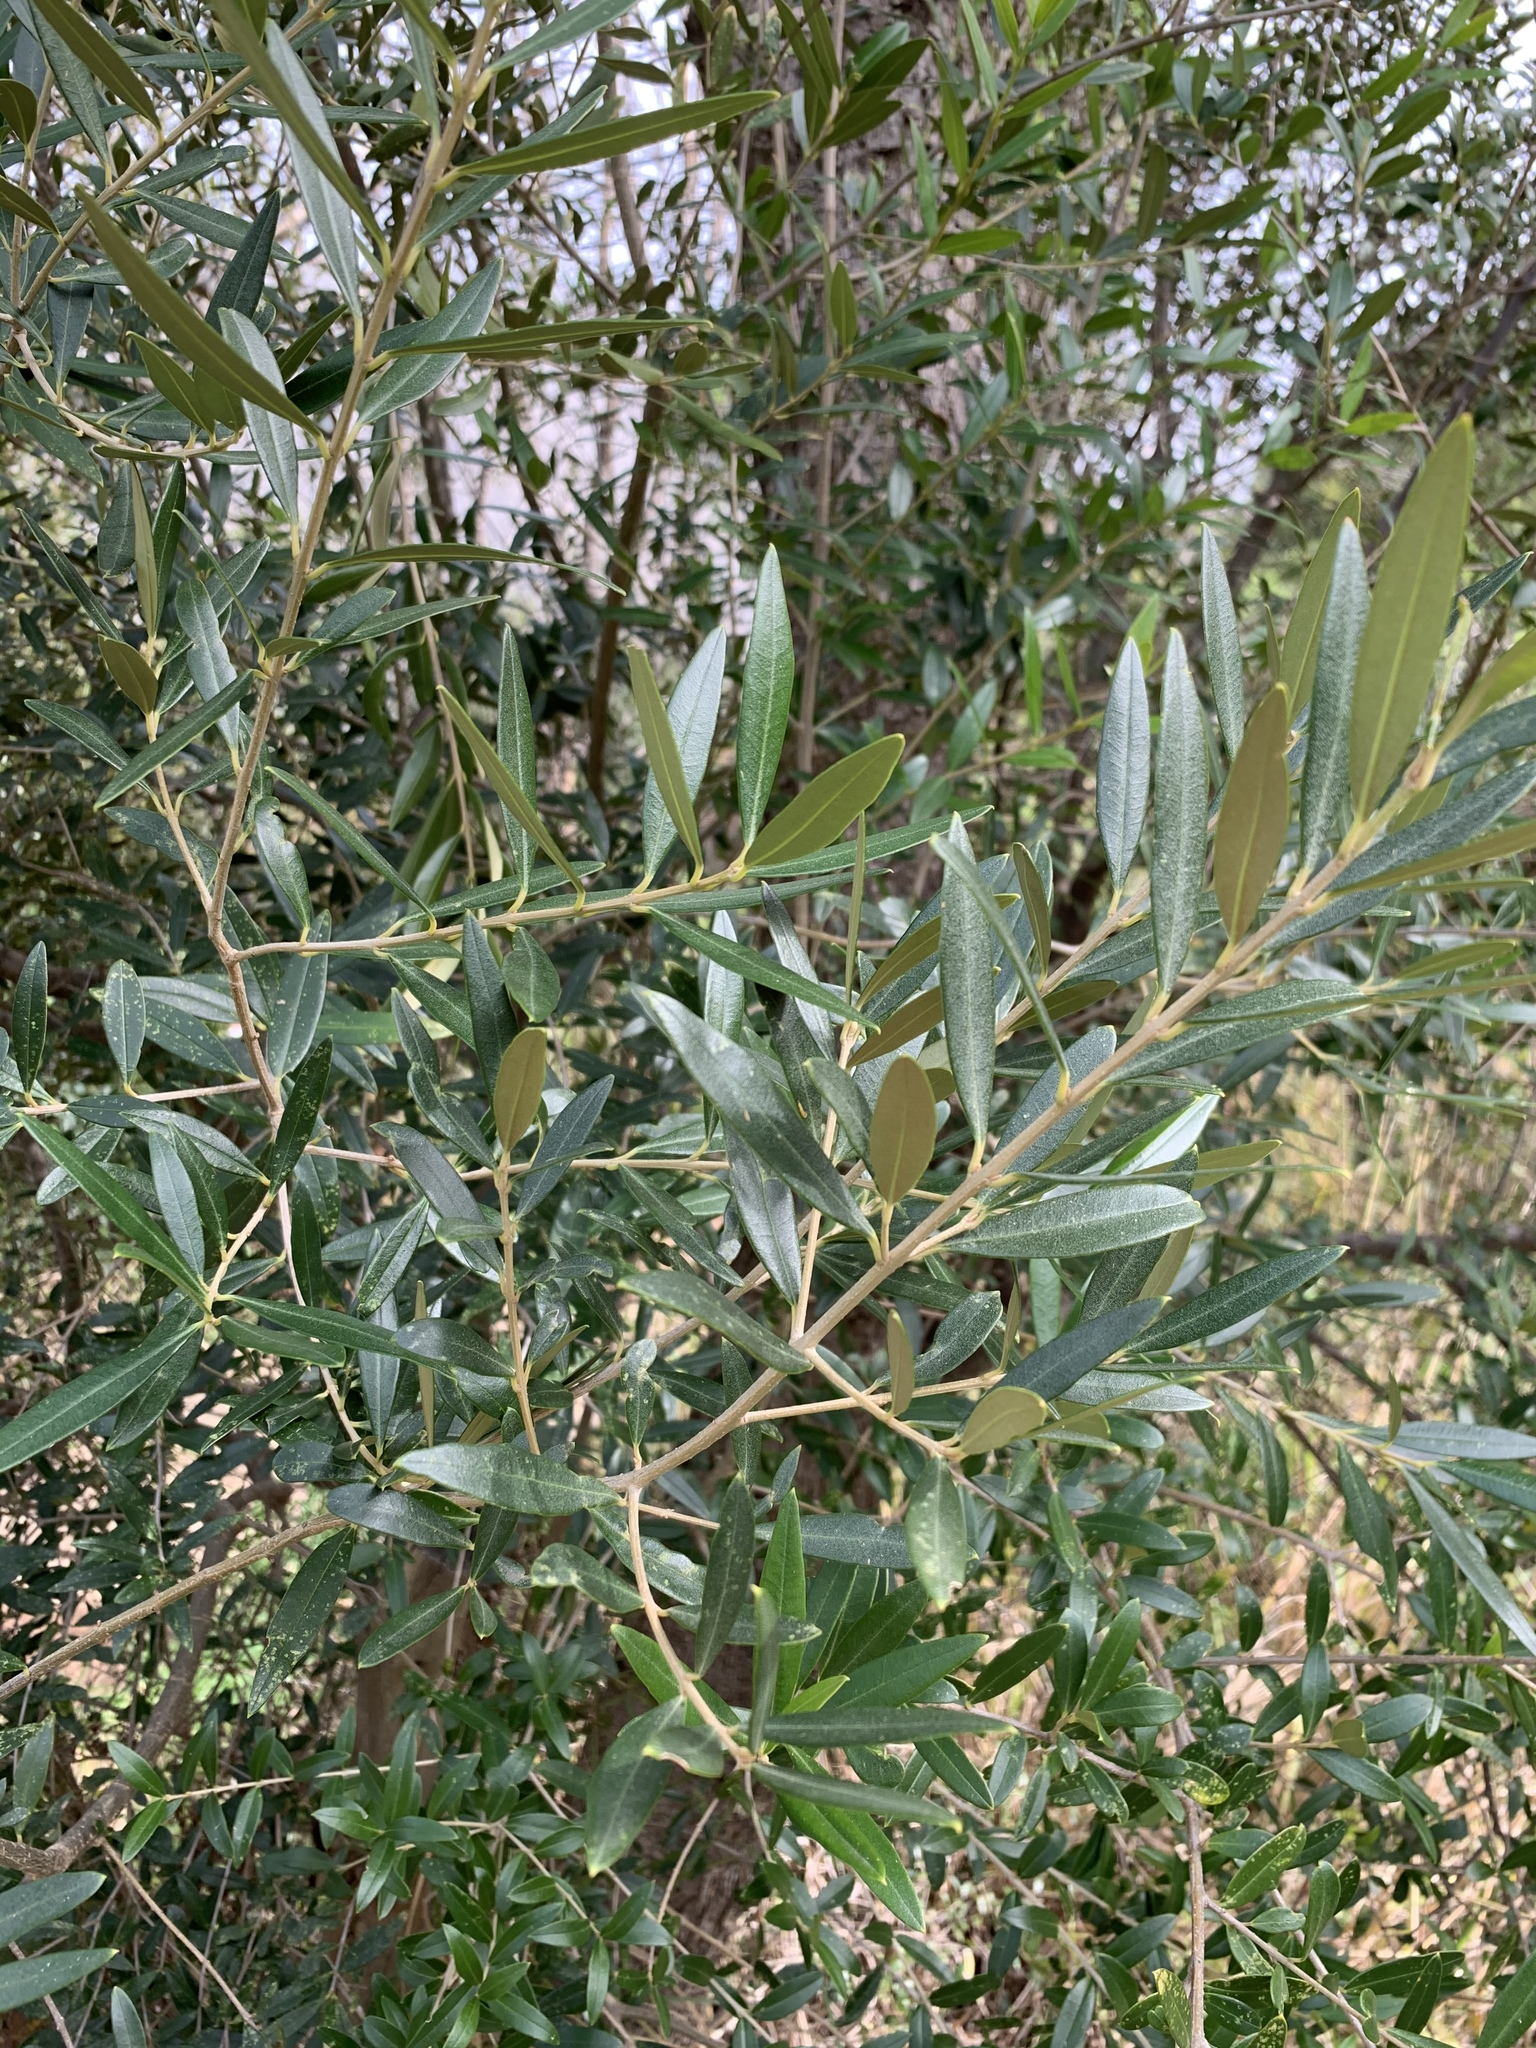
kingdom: Plantae
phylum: Tracheophyta
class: Magnoliopsida
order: Lamiales
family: Oleaceae
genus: Olea
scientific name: Olea europaea
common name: Olive
